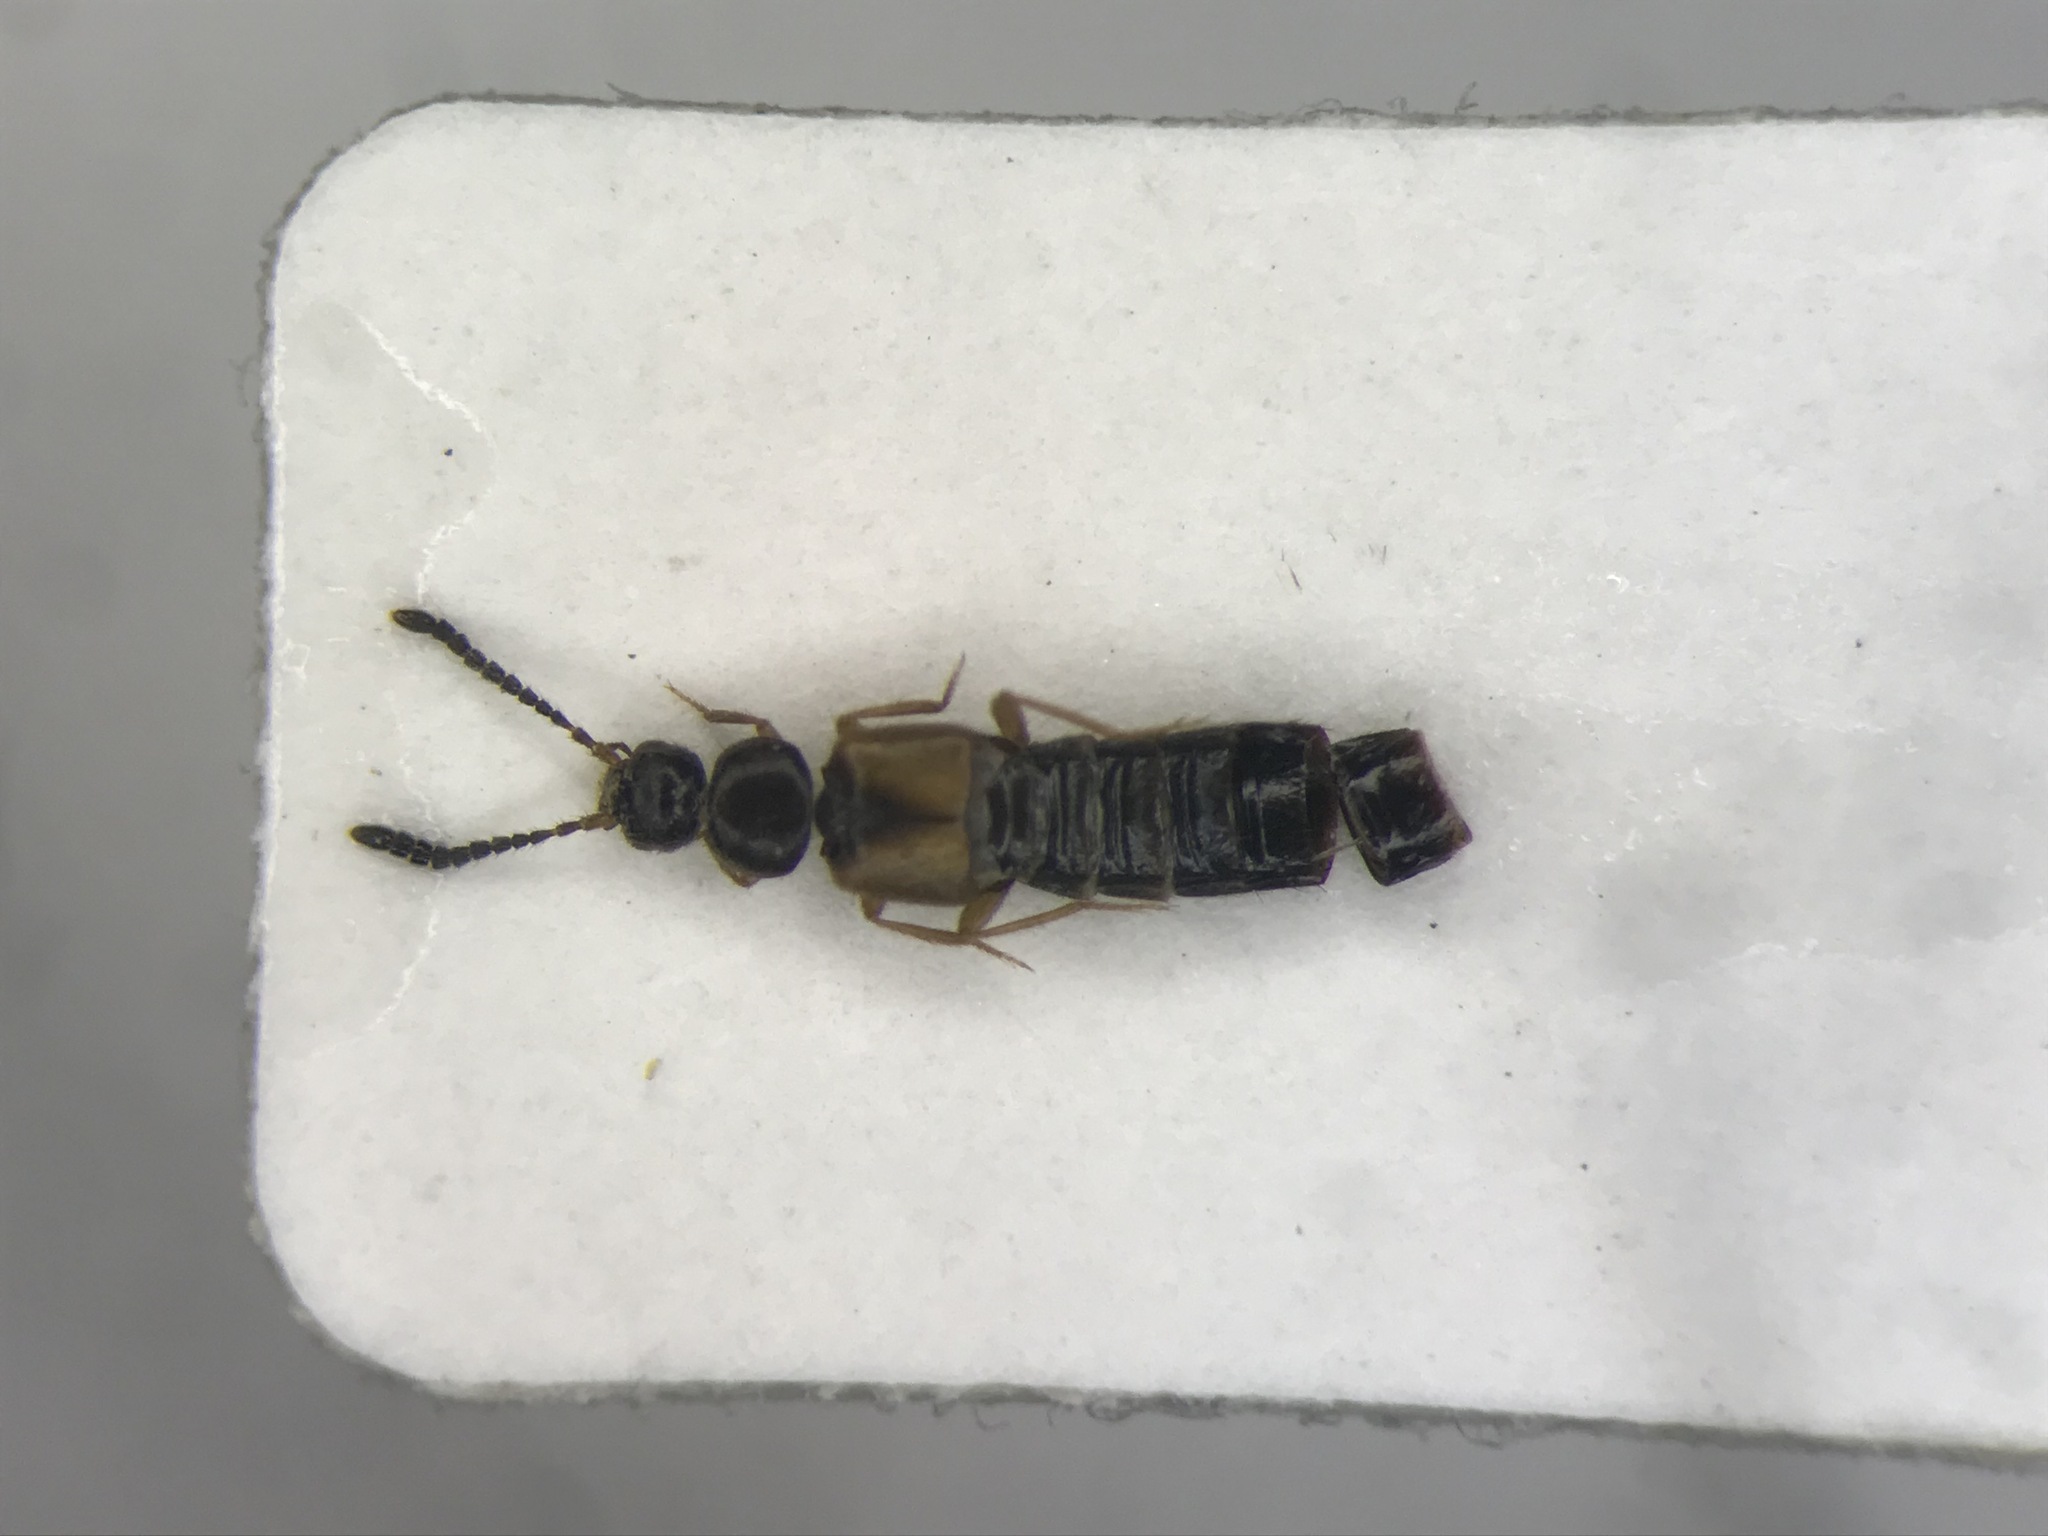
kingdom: Animalia
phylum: Arthropoda
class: Insecta
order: Coleoptera
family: Staphylinidae
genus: Atheta
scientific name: Atheta crenuliventris
